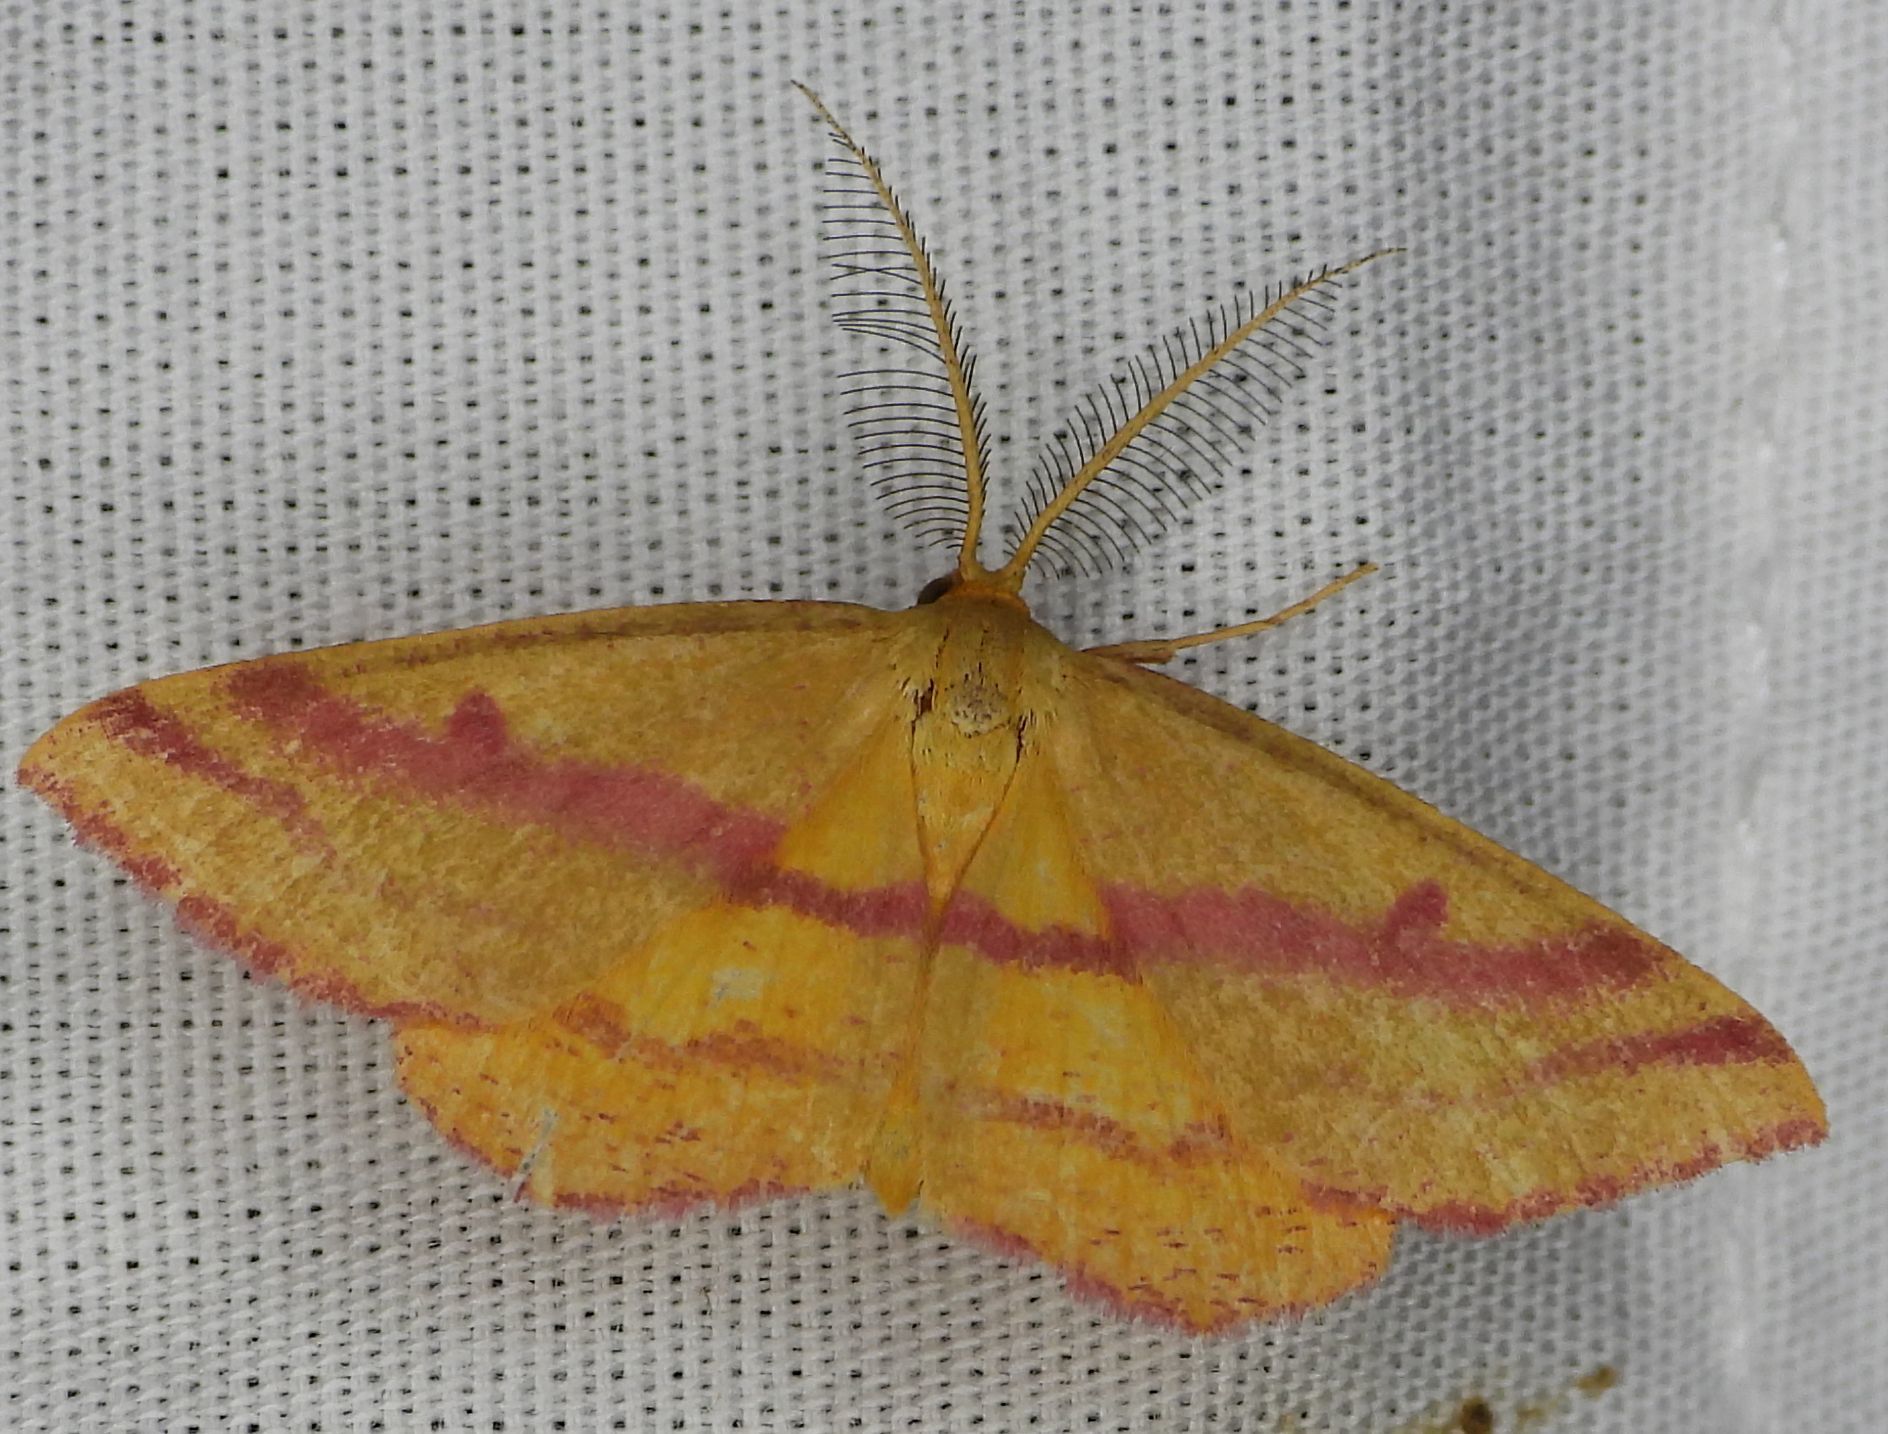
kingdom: Animalia
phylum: Arthropoda
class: Insecta
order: Lepidoptera
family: Geometridae
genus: Haematopis
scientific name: Haematopis grataria
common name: Chickweed geometer
